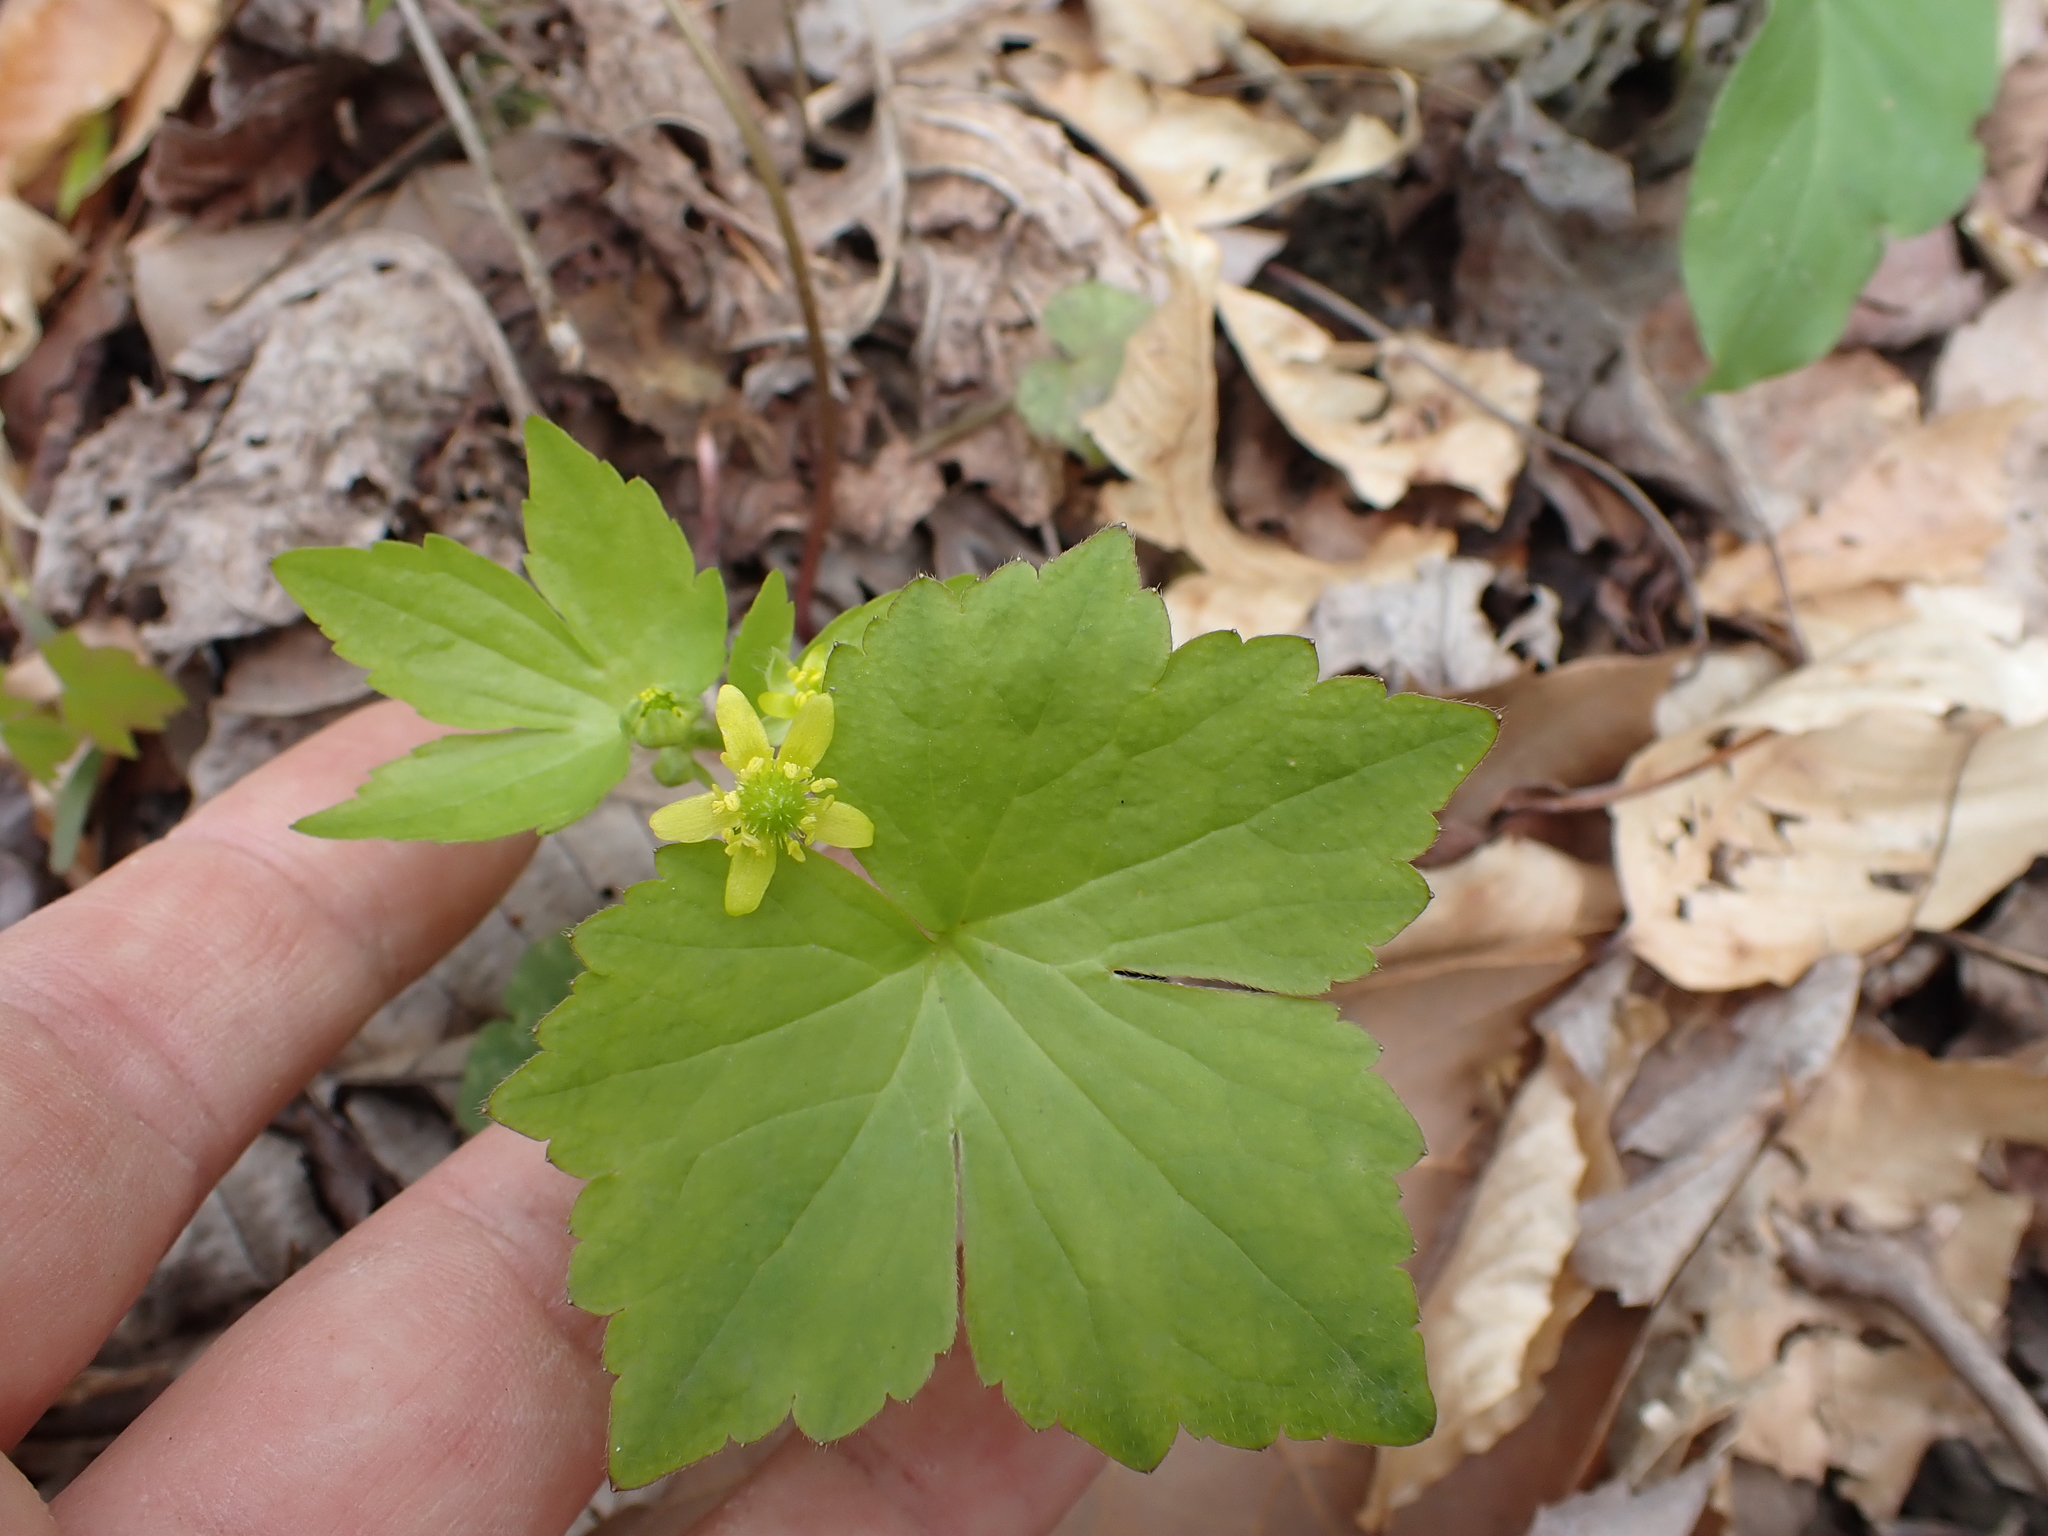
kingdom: Plantae
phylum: Tracheophyta
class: Magnoliopsida
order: Ranunculales
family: Ranunculaceae
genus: Ranunculus
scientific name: Ranunculus recurvatus
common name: Blisterwort
